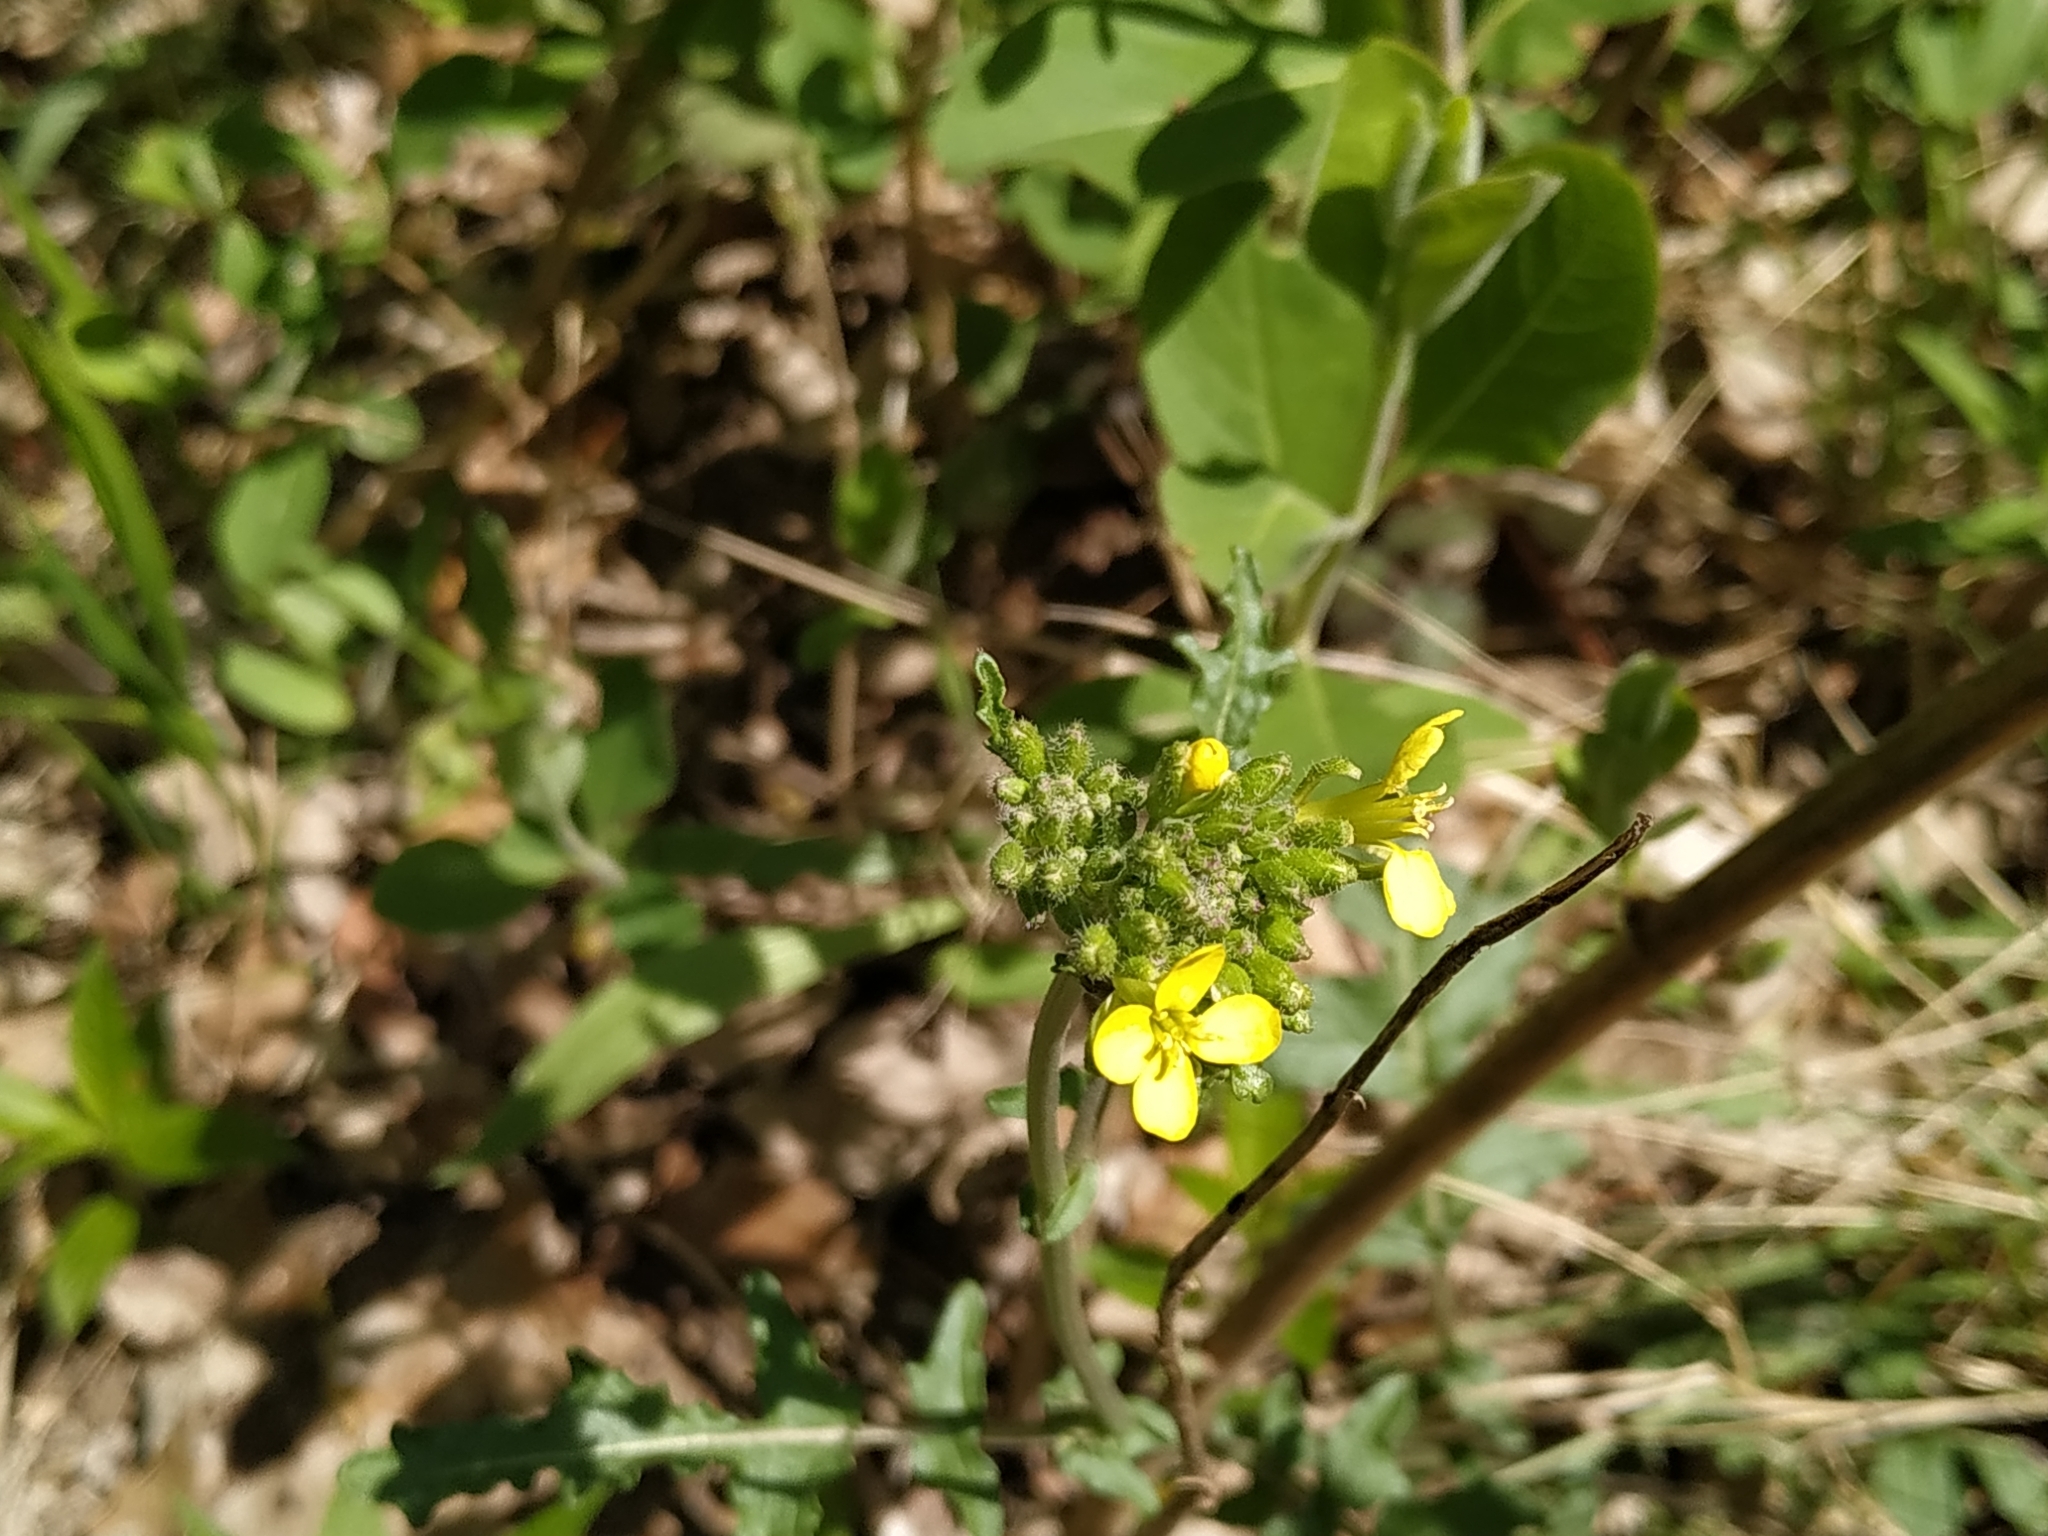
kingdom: Animalia
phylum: Arthropoda
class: Insecta
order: Lepidoptera
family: Pieridae
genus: Anthocharis
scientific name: Anthocharis cardamines
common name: Orange-tip
